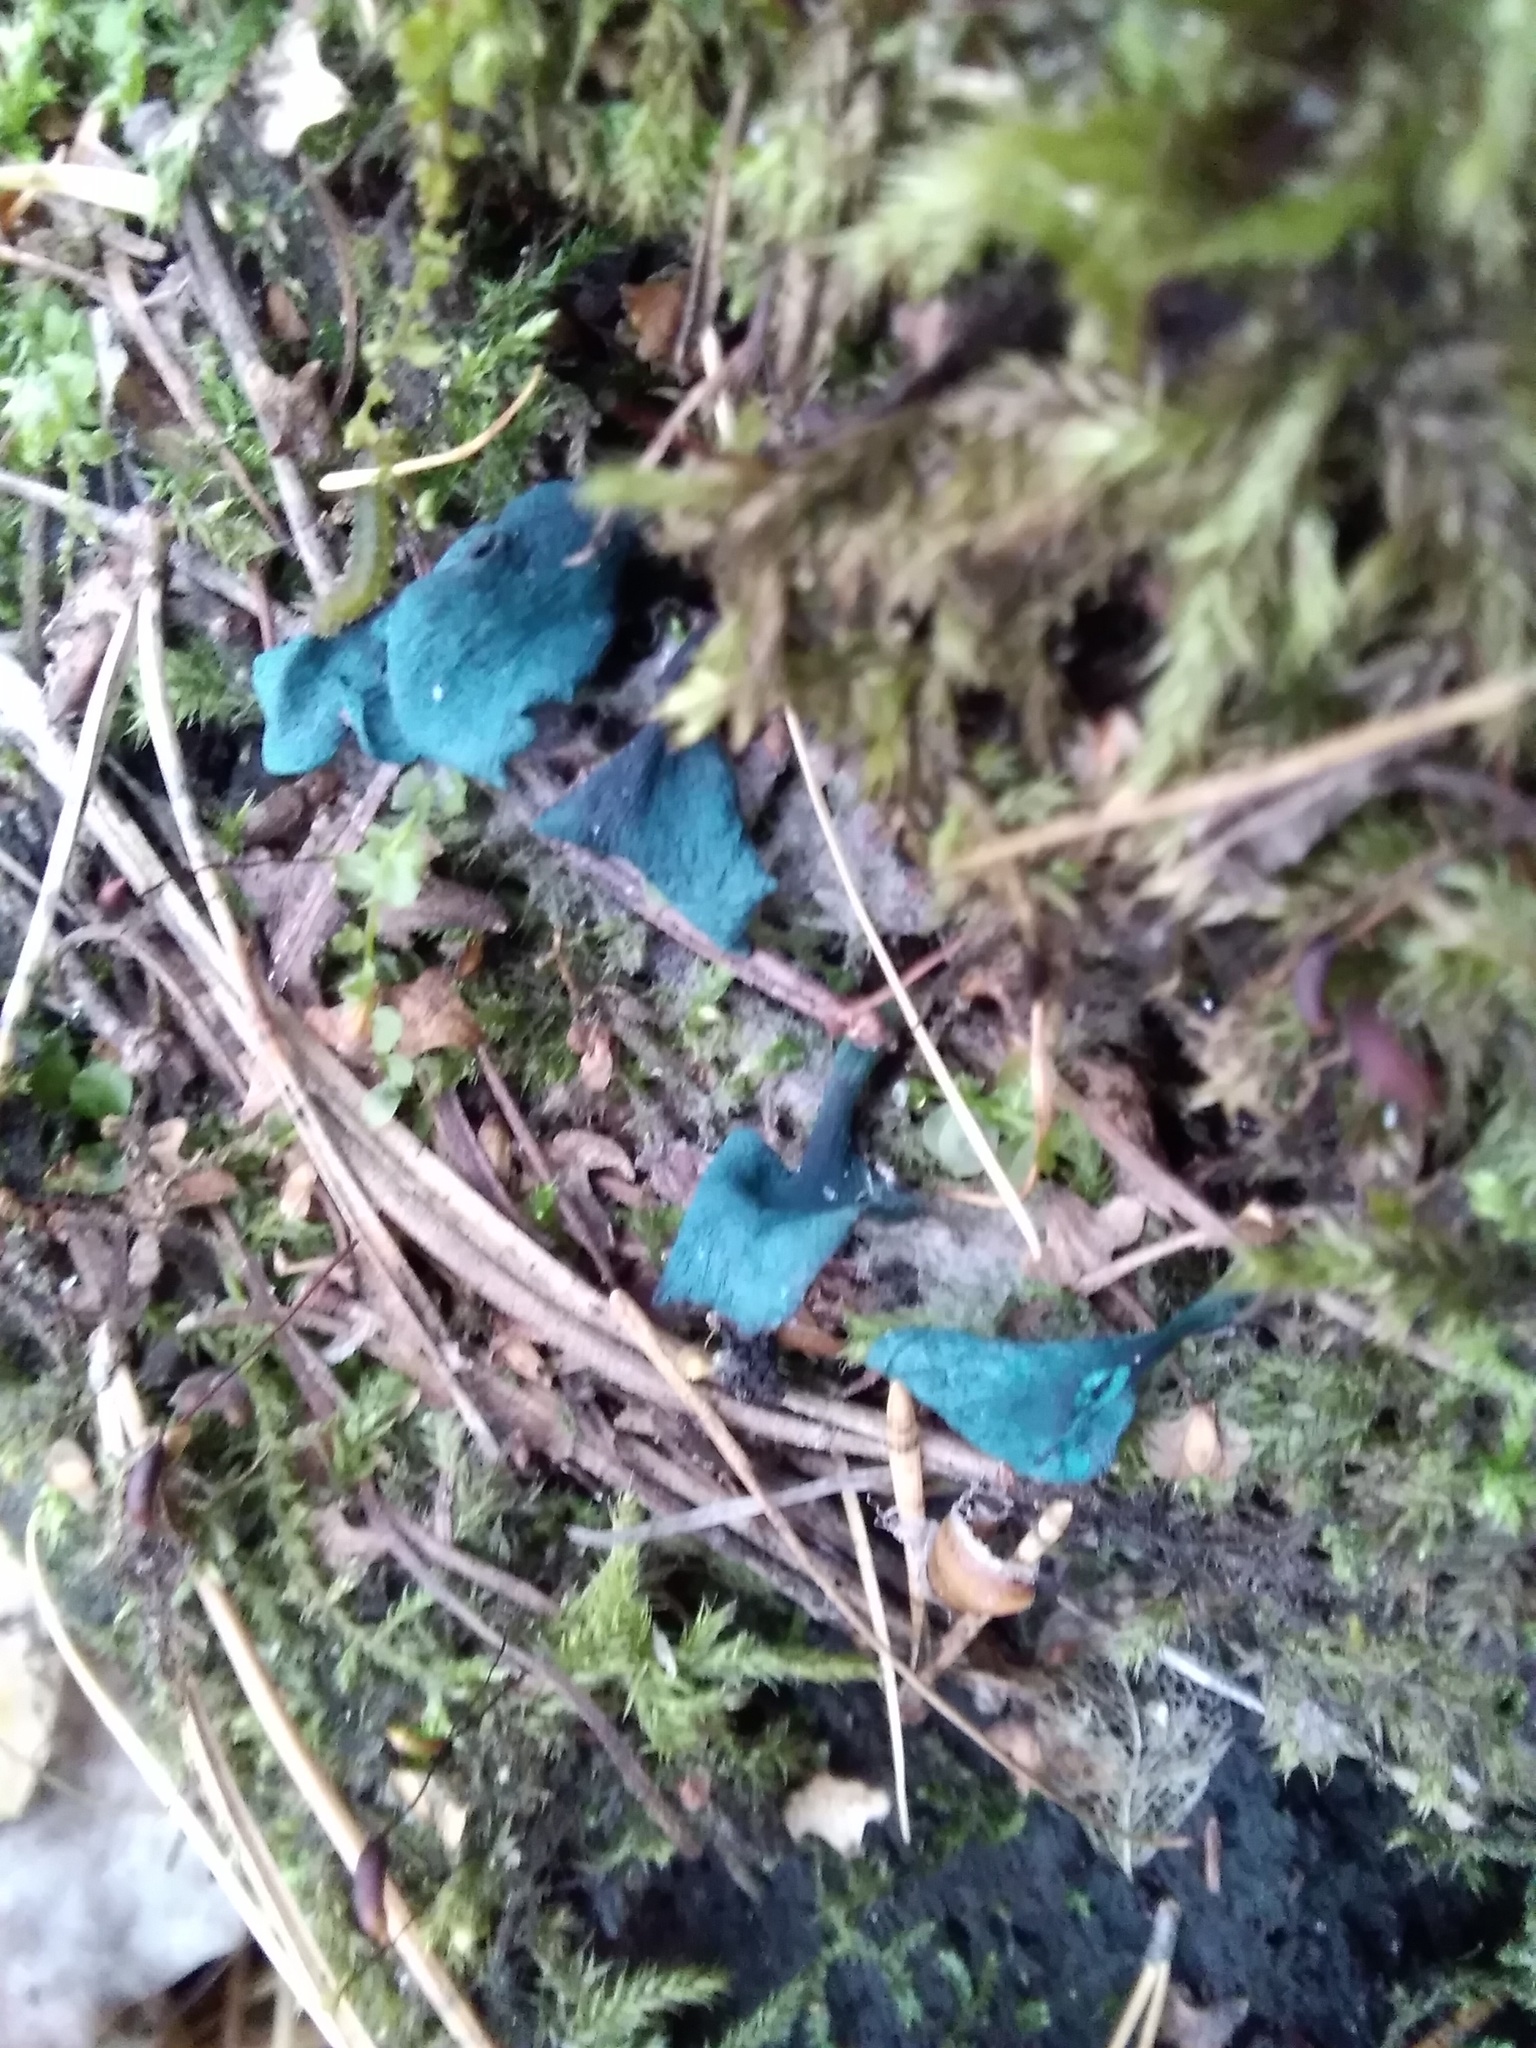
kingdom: Fungi
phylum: Ascomycota
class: Leotiomycetes
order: Helotiales
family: Chlorociboriaceae
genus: Chlorociboria
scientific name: Chlorociboria aeruginascens
